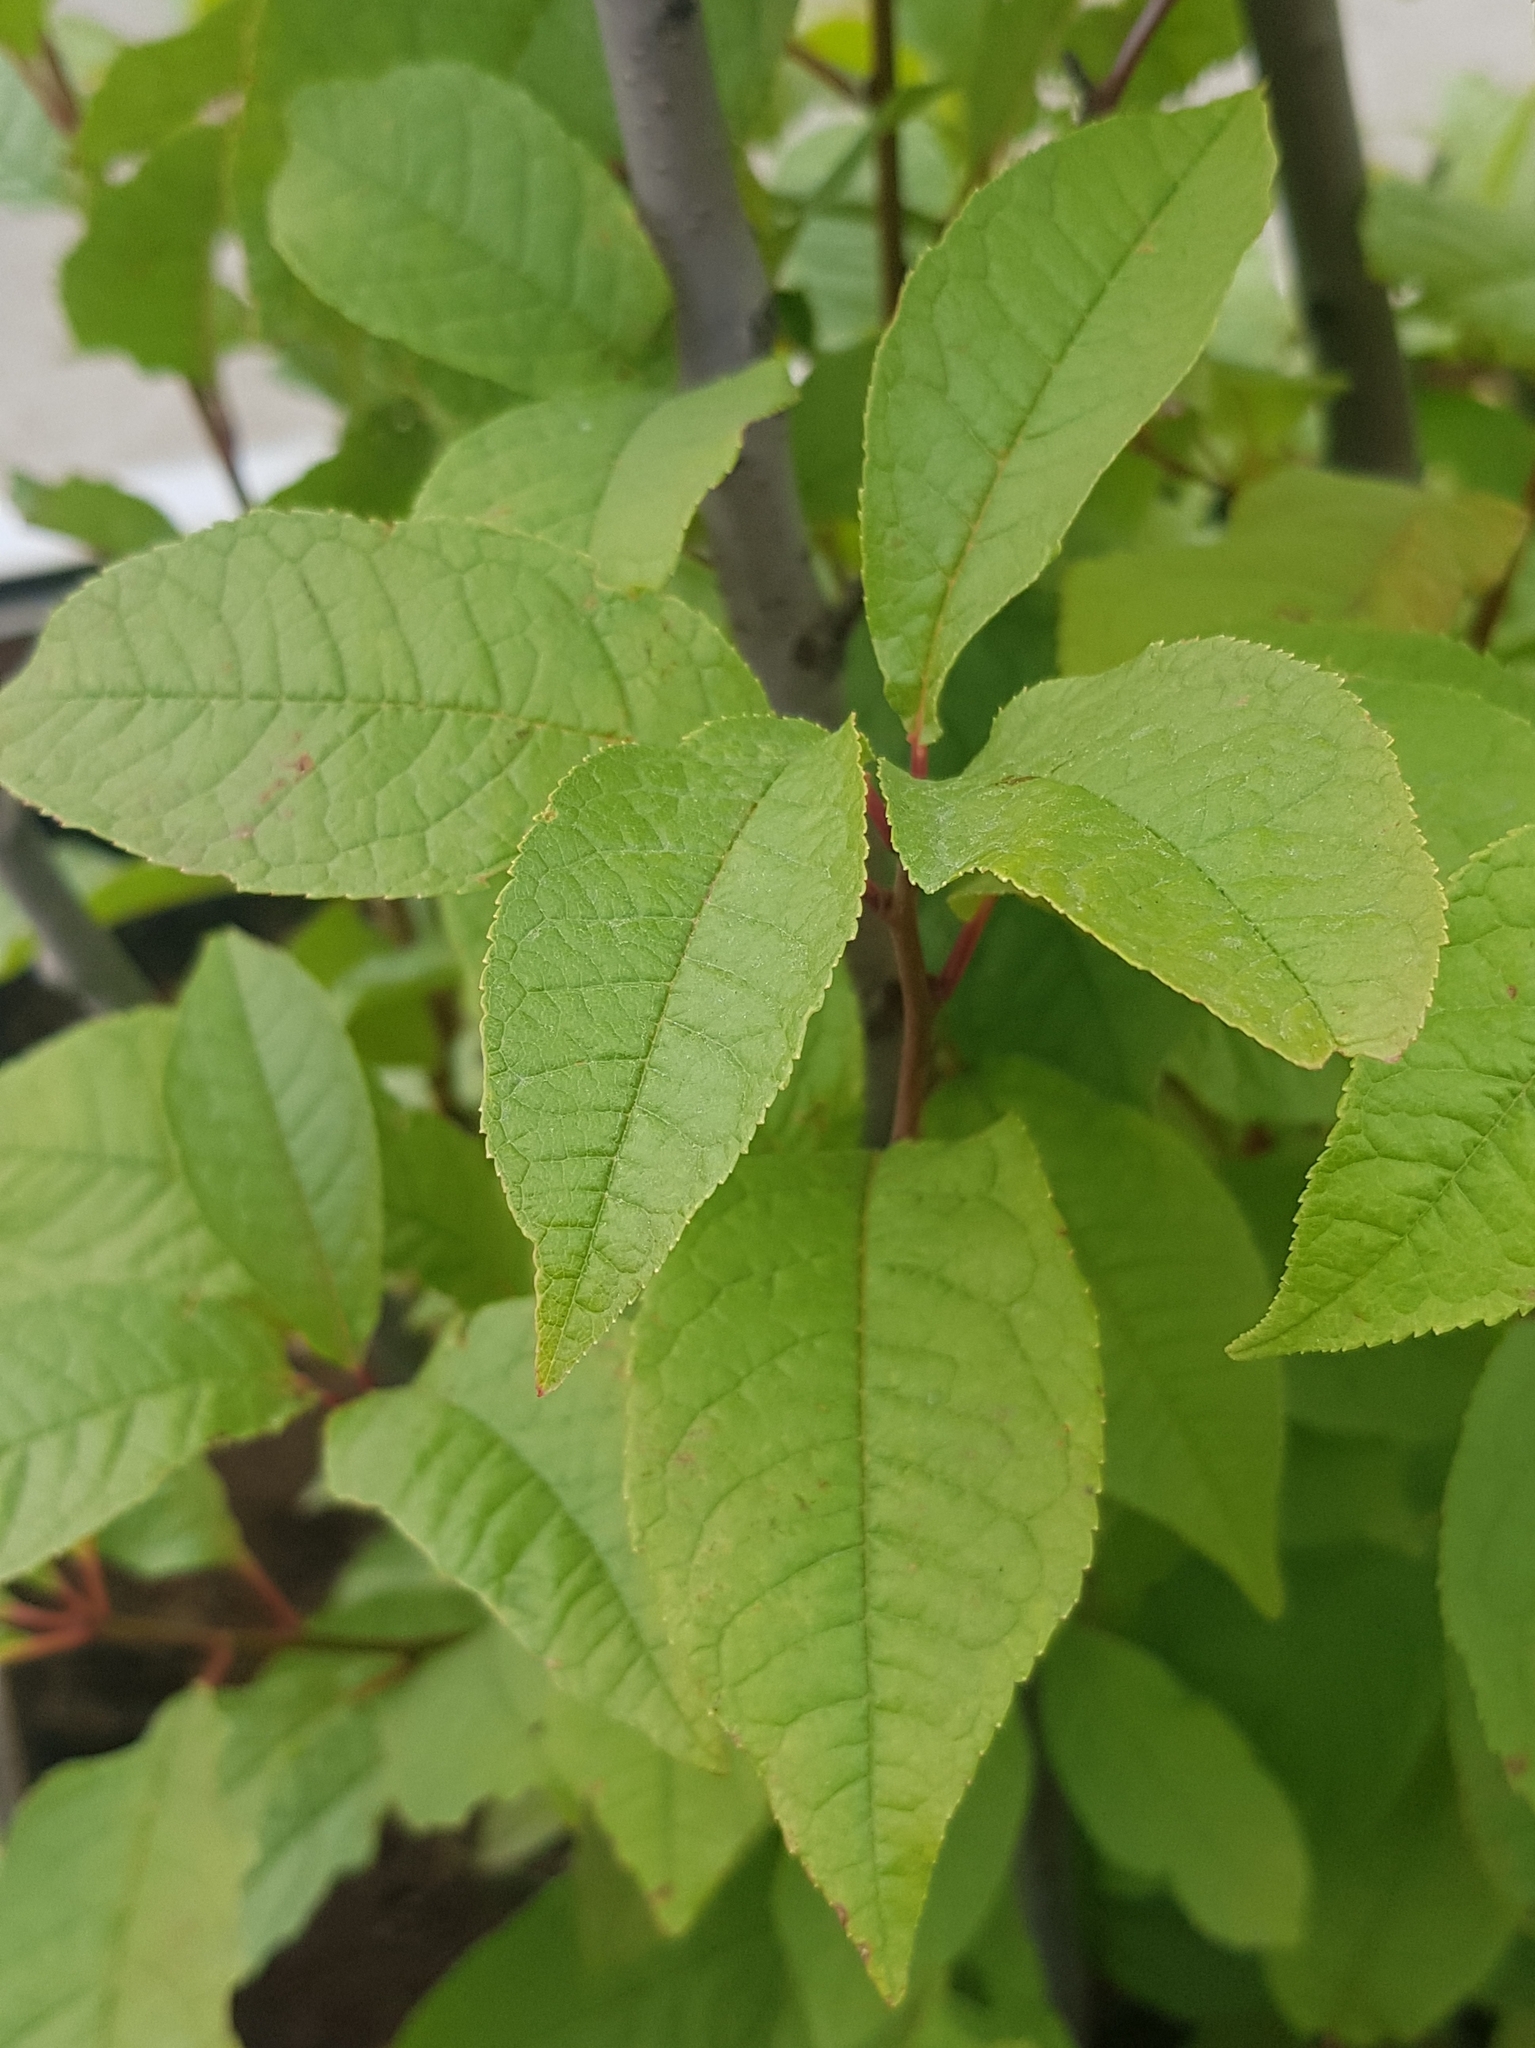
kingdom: Plantae
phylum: Tracheophyta
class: Magnoliopsida
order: Rosales
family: Rosaceae
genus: Prunus
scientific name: Prunus padus
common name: Bird cherry
